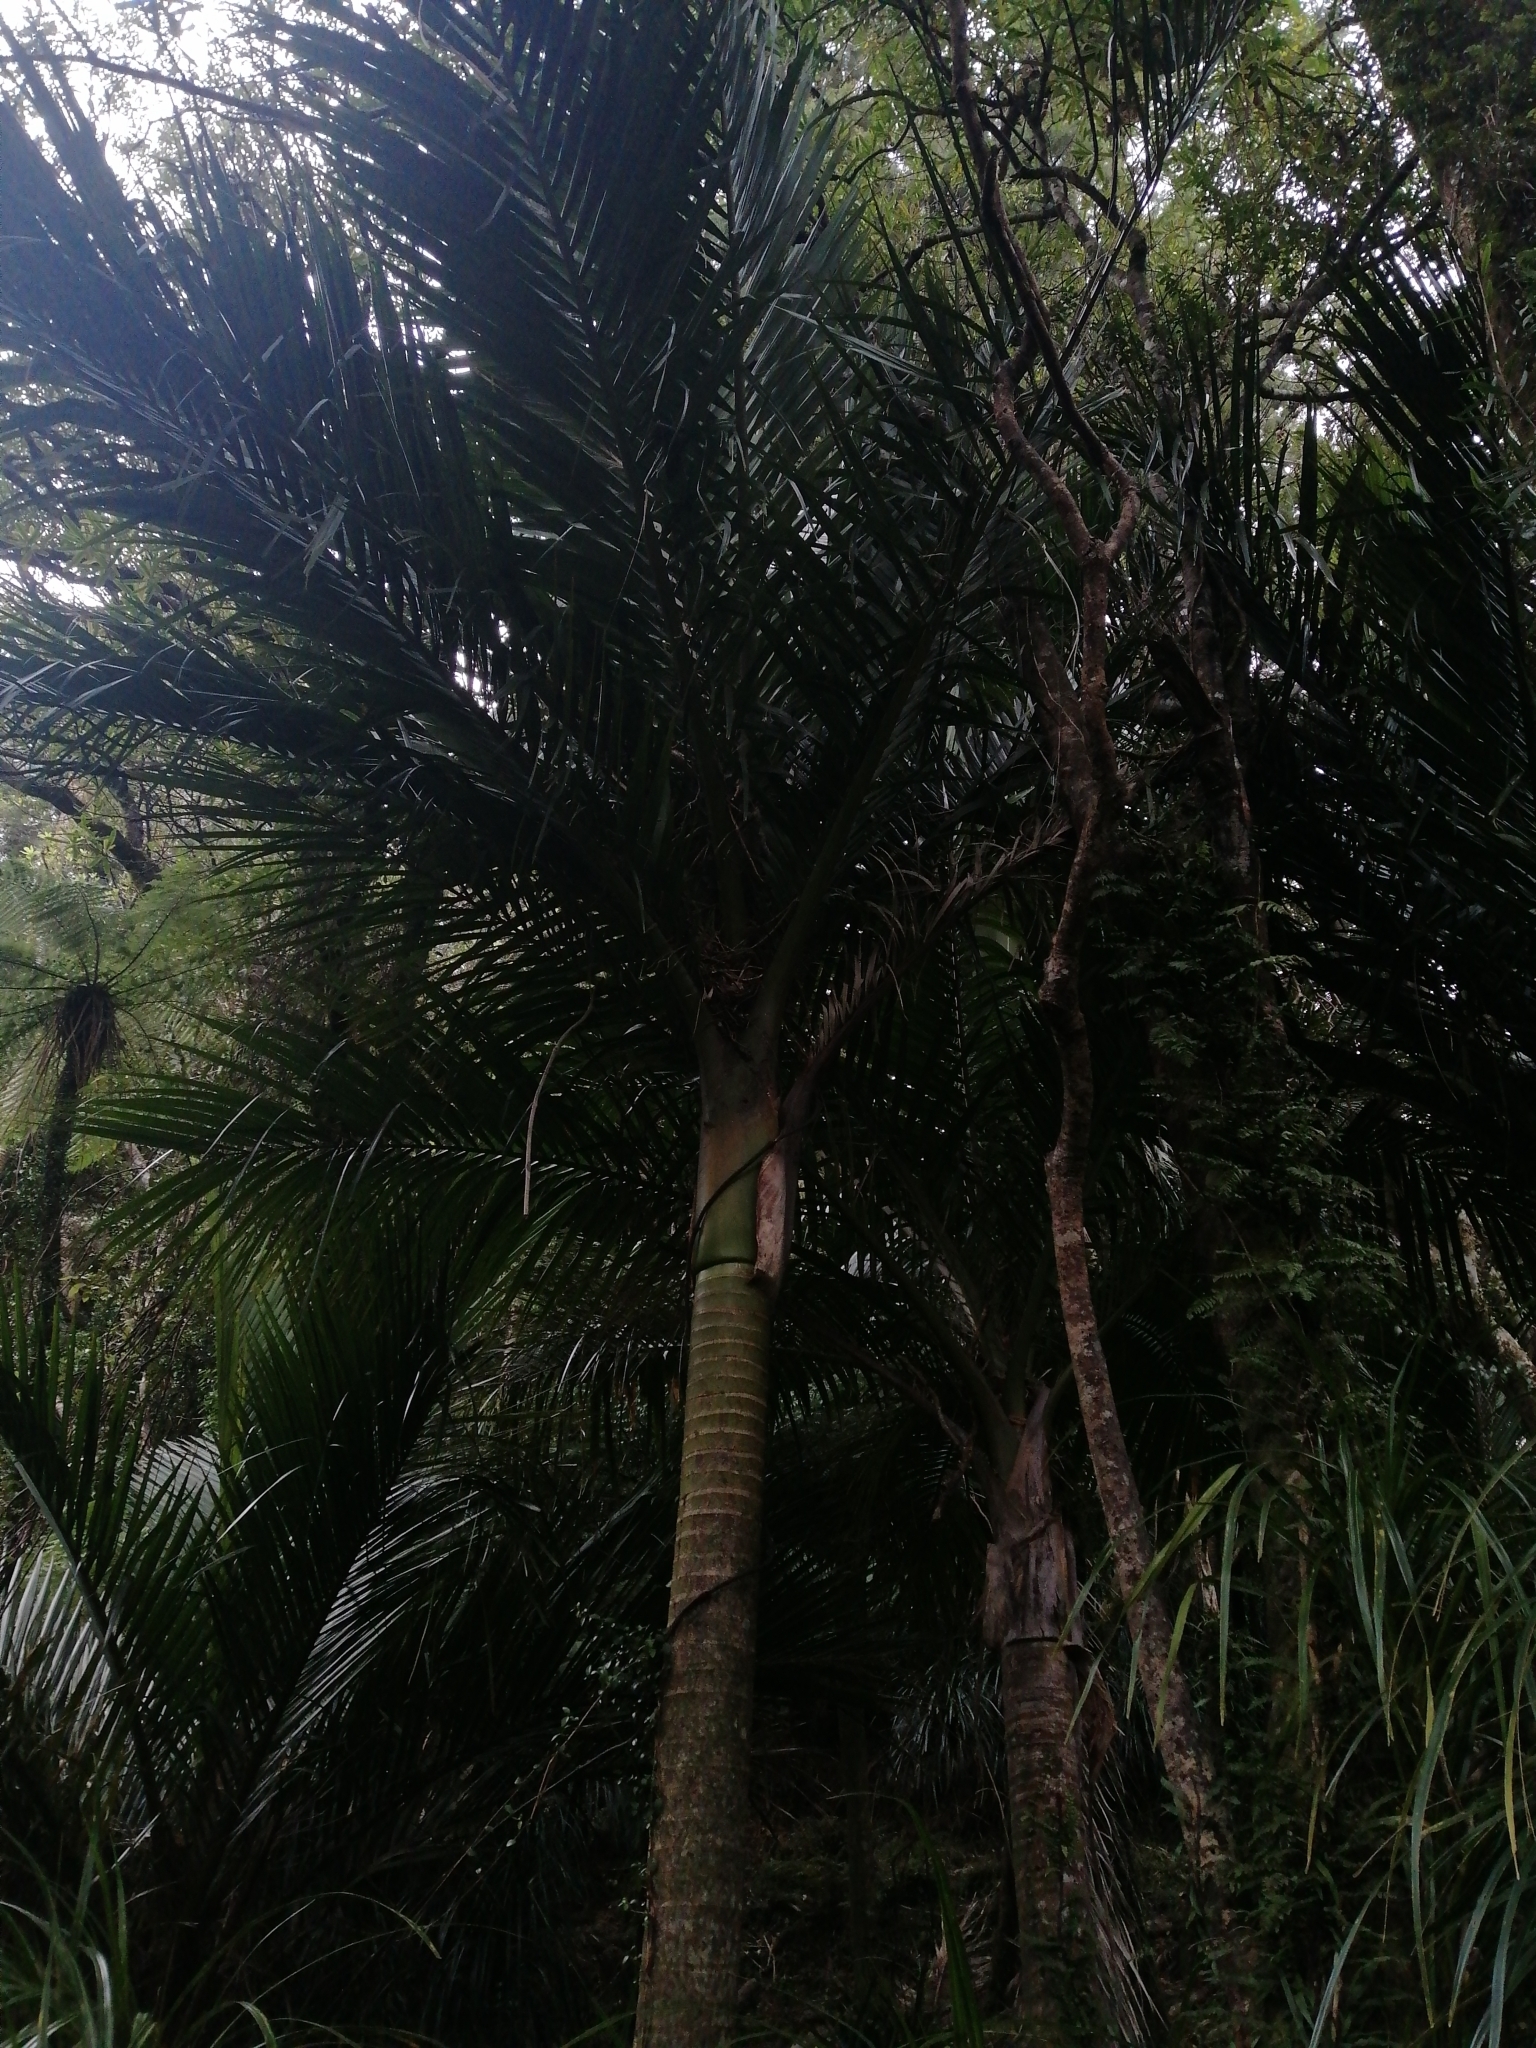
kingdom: Plantae
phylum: Tracheophyta
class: Liliopsida
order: Arecales
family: Arecaceae
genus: Rhopalostylis
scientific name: Rhopalostylis sapida
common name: Feather-duster palm
